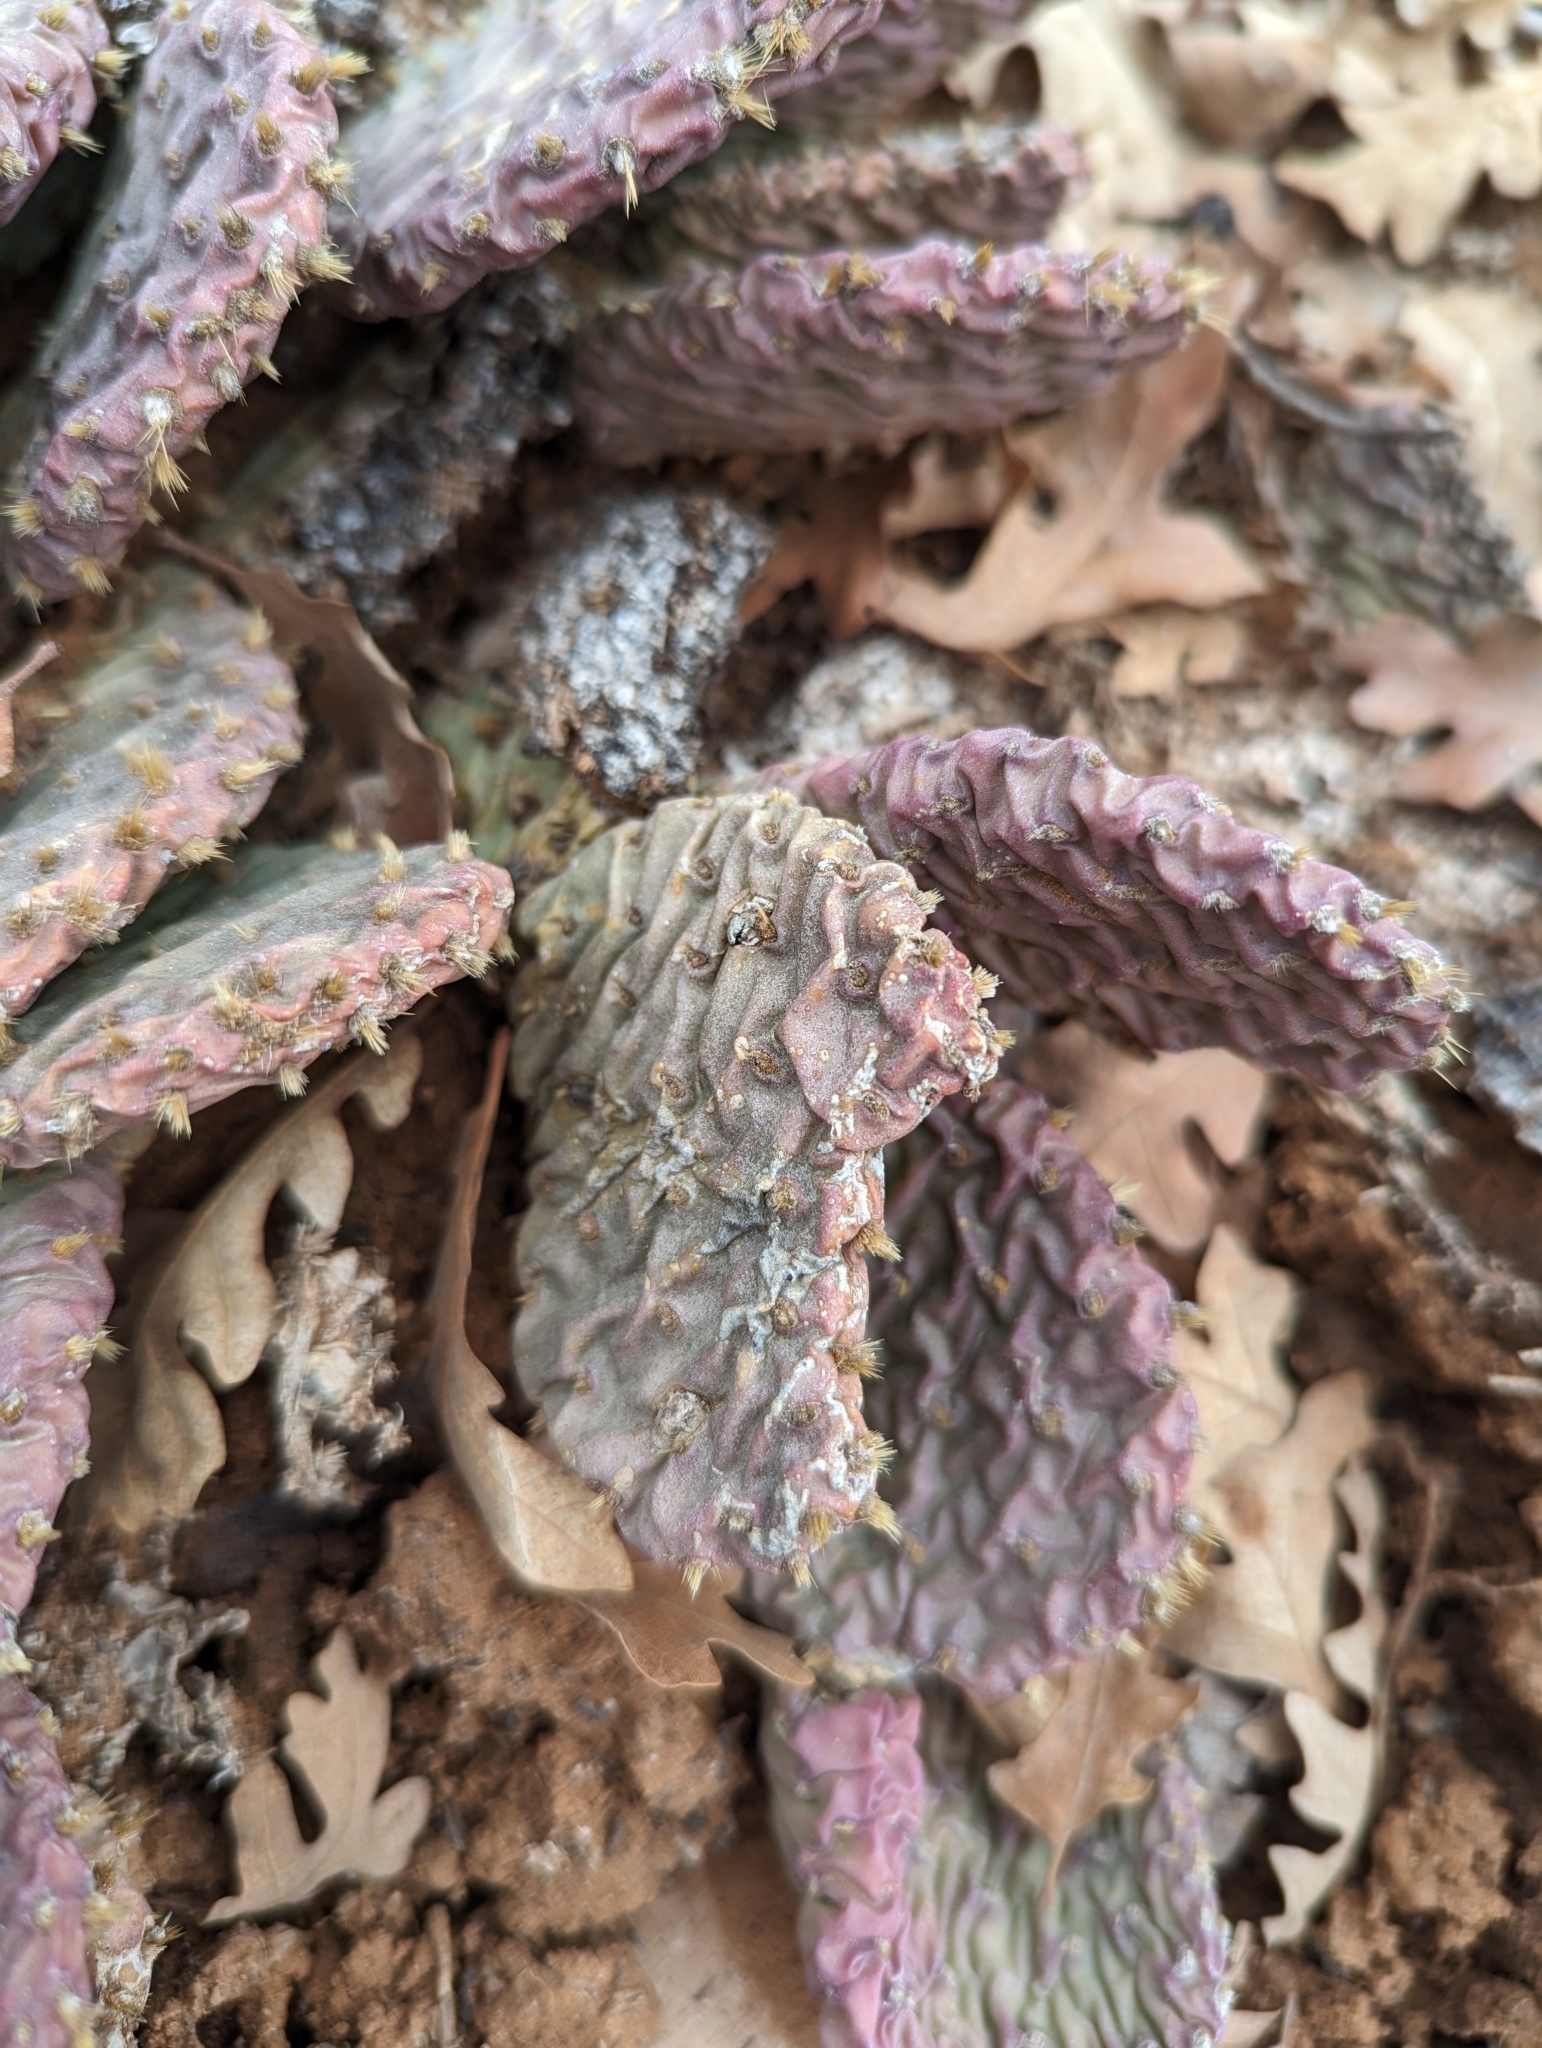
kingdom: Plantae
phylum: Tracheophyta
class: Magnoliopsida
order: Caryophyllales
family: Cactaceae
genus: Opuntia
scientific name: Opuntia aurea
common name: Golden prickly-pear
